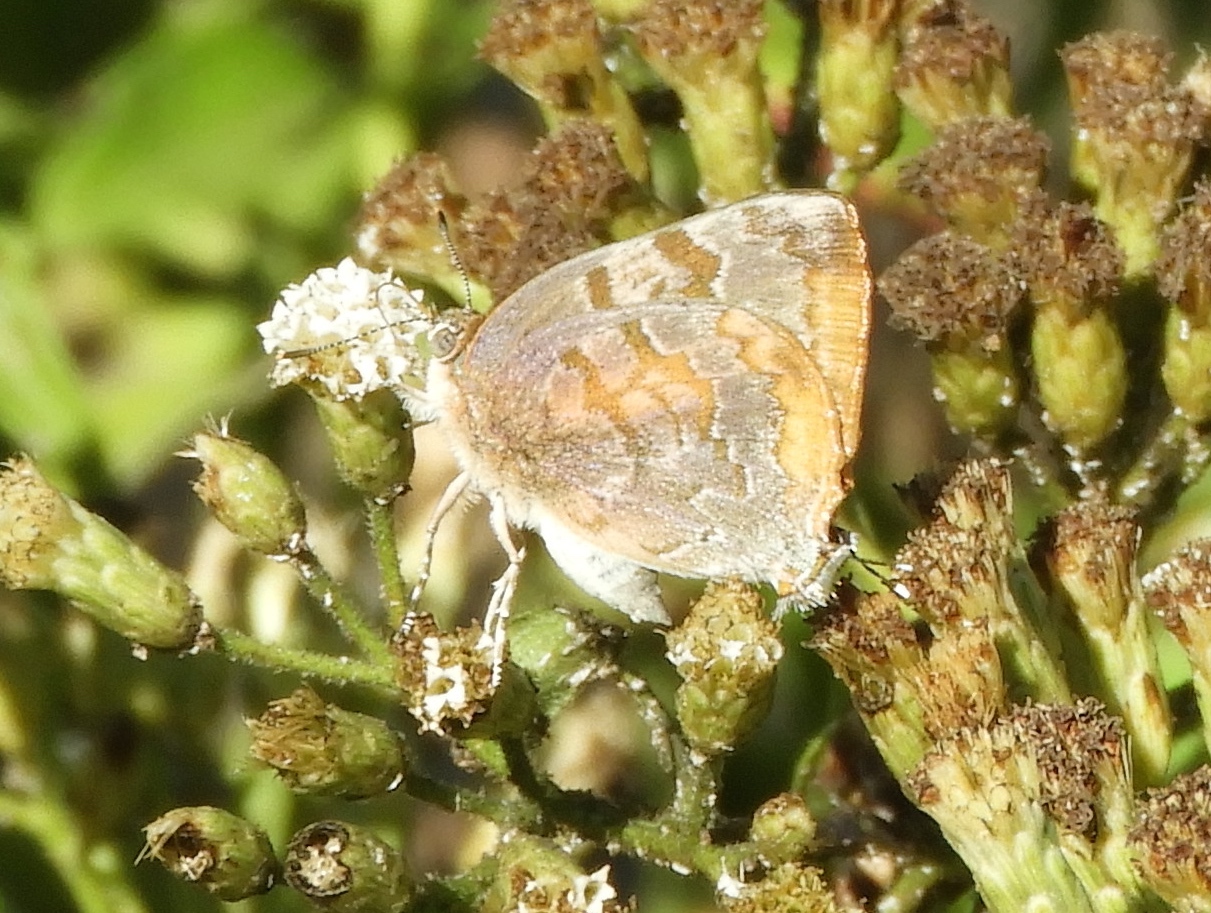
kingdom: Animalia
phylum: Arthropoda
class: Insecta
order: Lepidoptera
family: Lycaenidae
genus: Rekoa
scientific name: Rekoa palegon
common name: Gold-bordered hairstreak
